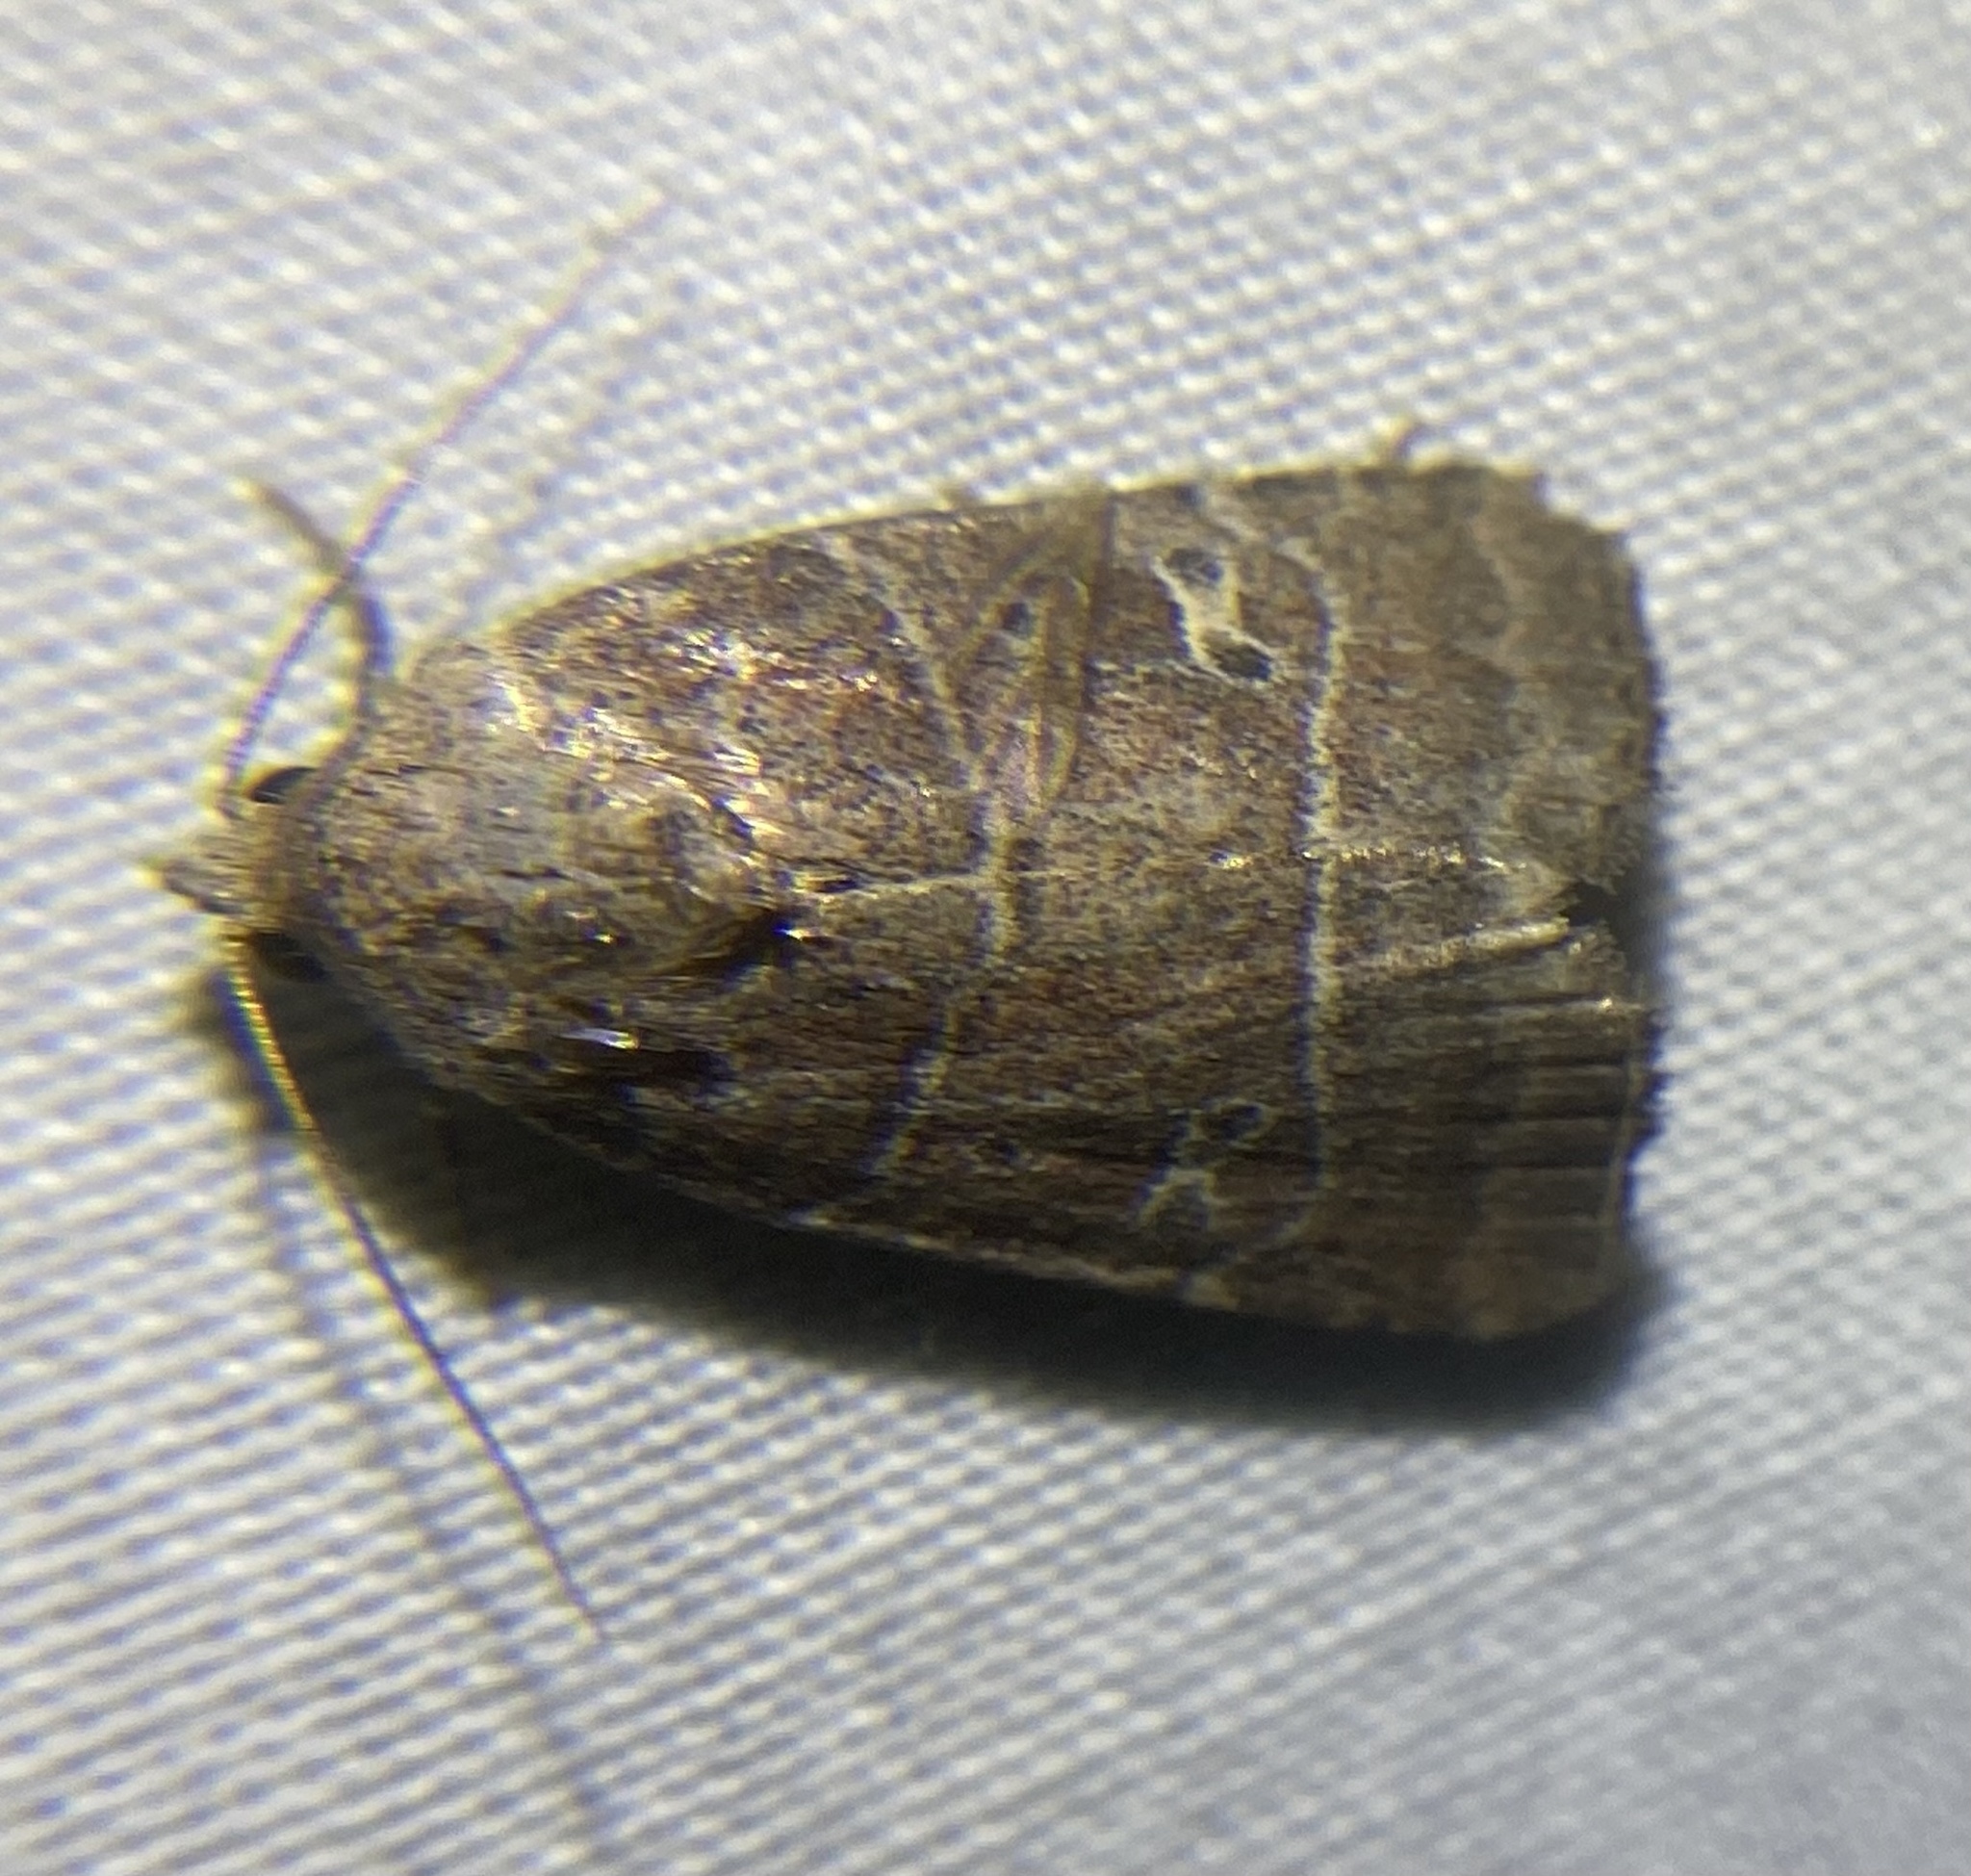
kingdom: Animalia
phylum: Arthropoda
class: Insecta
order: Lepidoptera
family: Noctuidae
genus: Elaphria
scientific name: Elaphria grata
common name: Grateful midget moth
